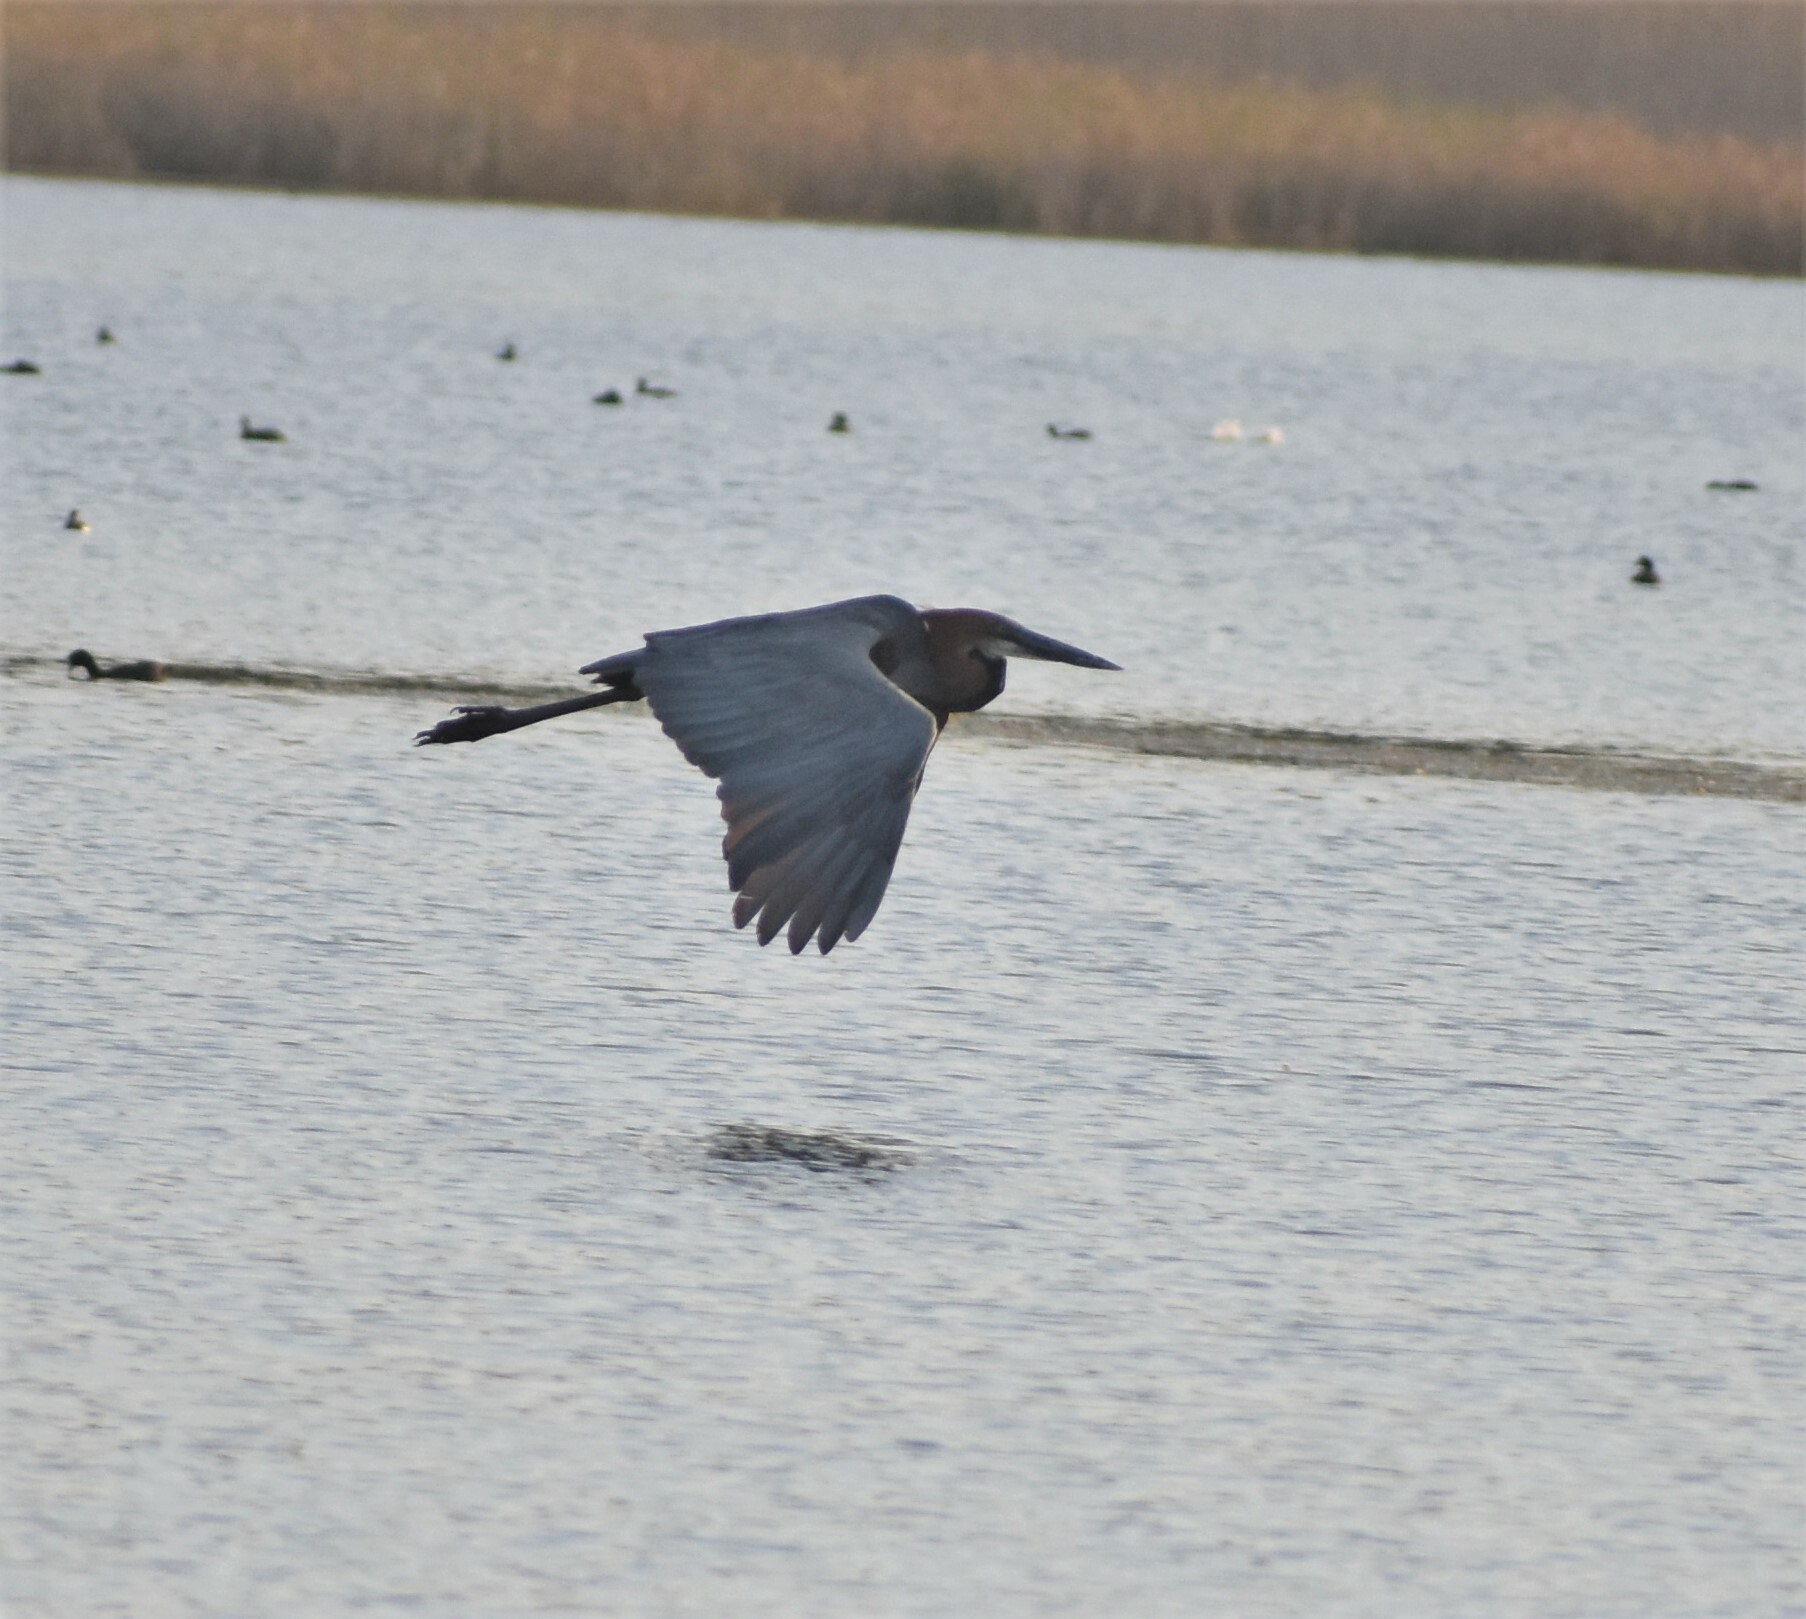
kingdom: Animalia
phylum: Chordata
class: Aves
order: Pelecaniformes
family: Ardeidae
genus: Ardea
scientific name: Ardea goliath
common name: Goliath heron
